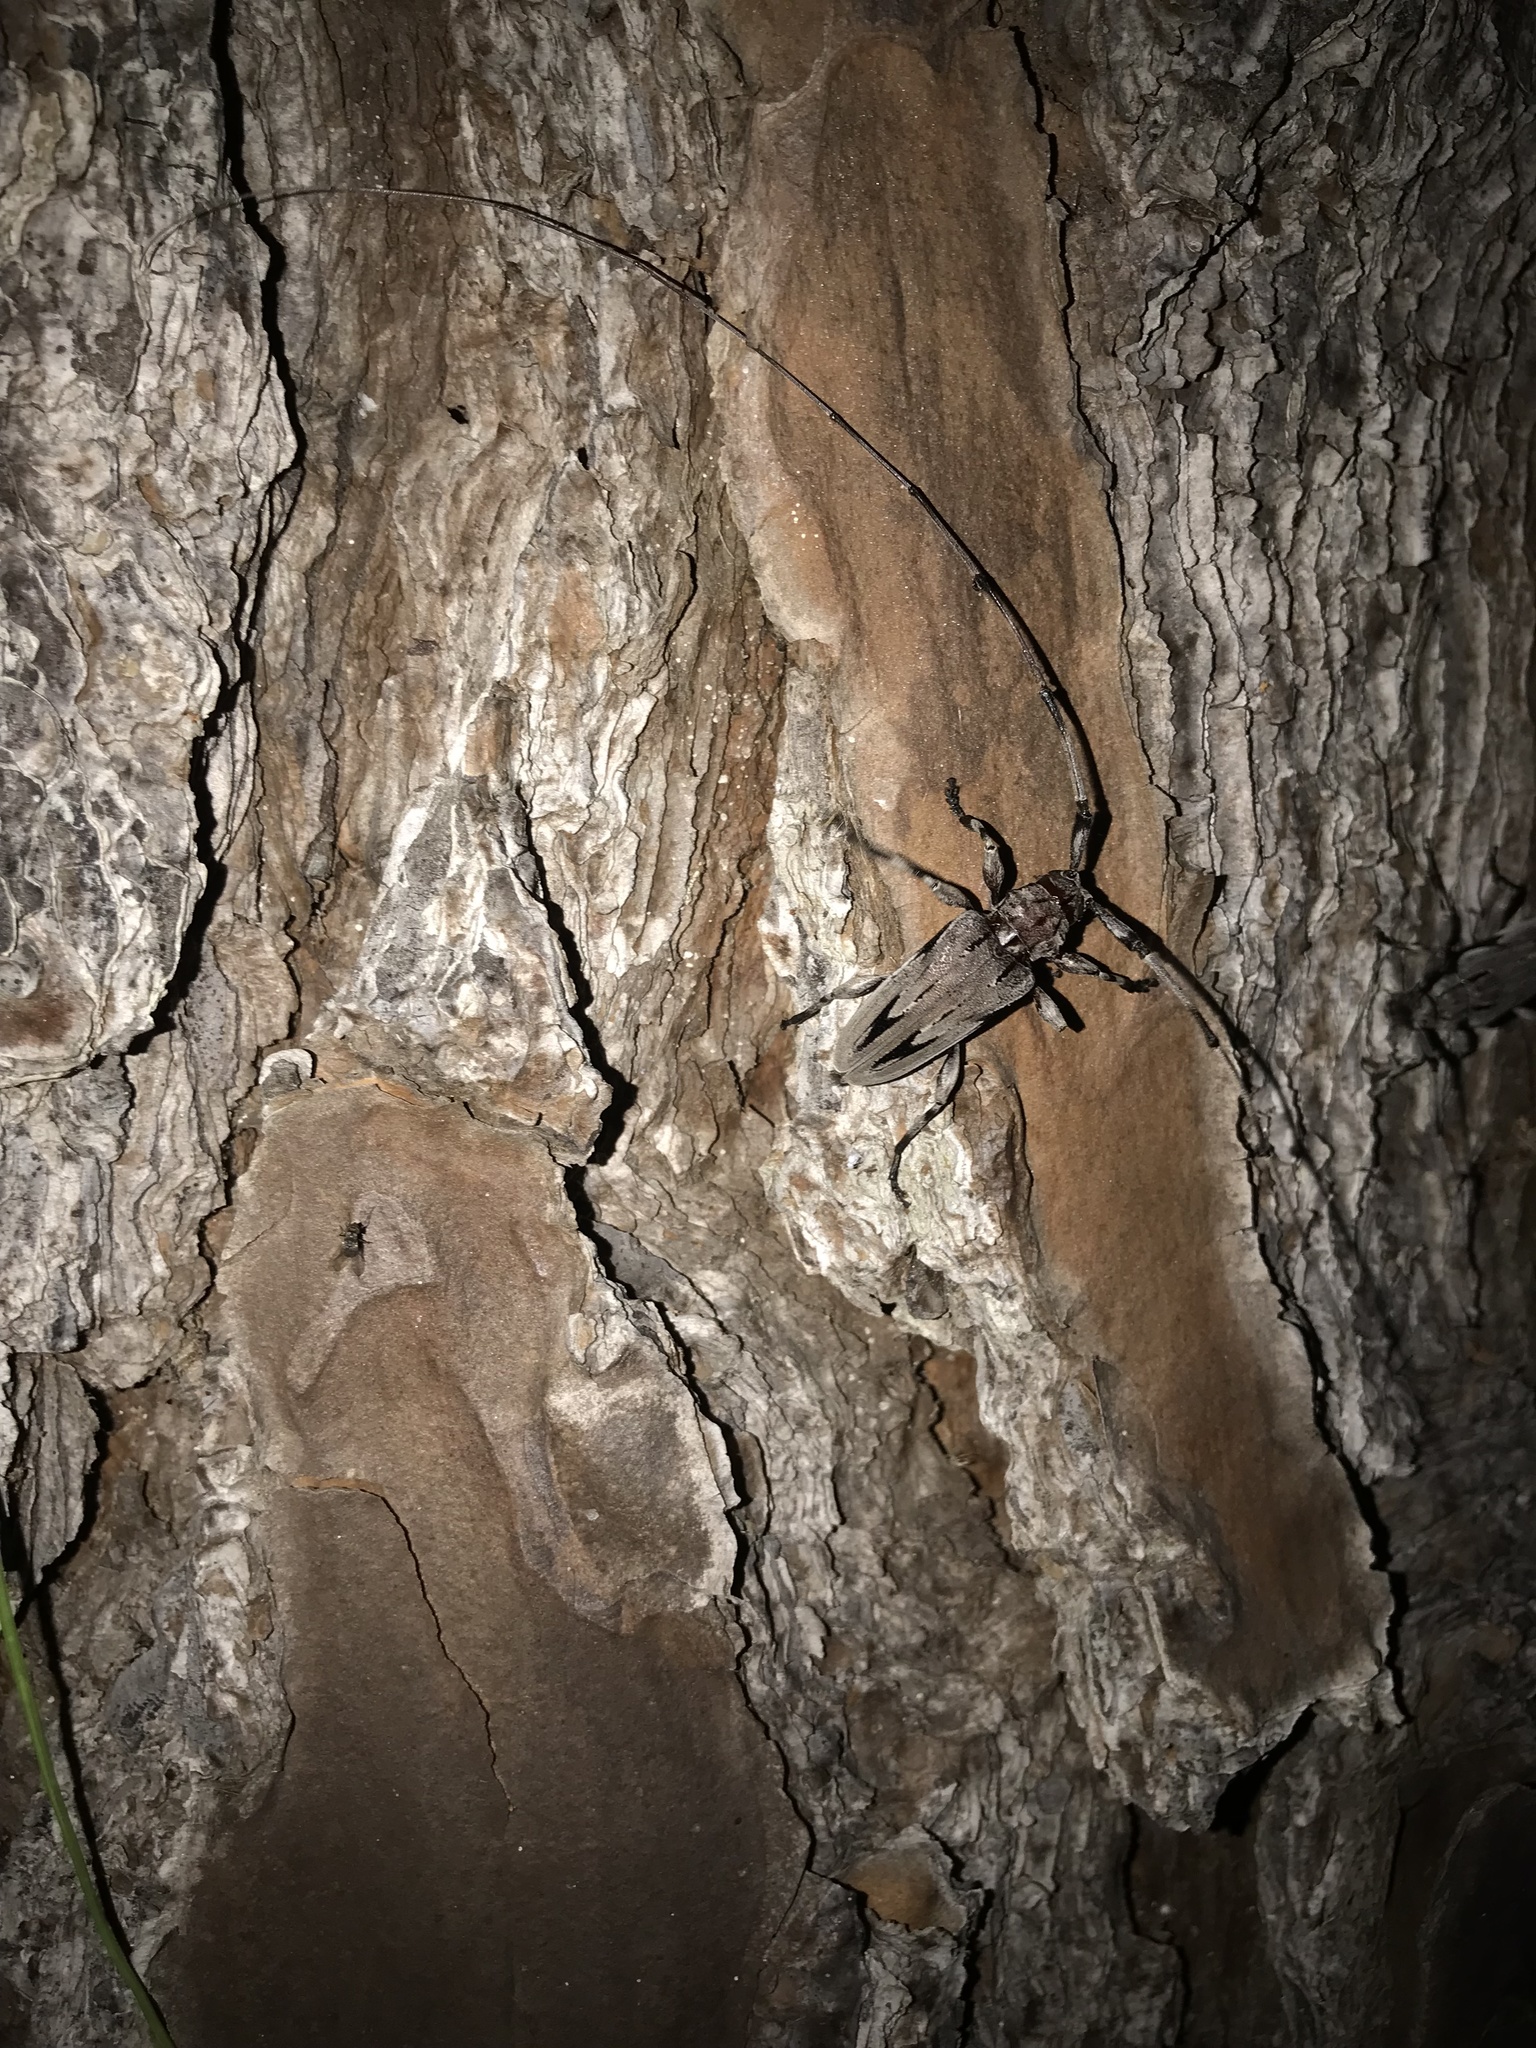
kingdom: Animalia
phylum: Arthropoda
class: Insecta
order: Coleoptera
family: Cerambycidae
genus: Acanthocinus
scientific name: Acanthocinus nodosus
